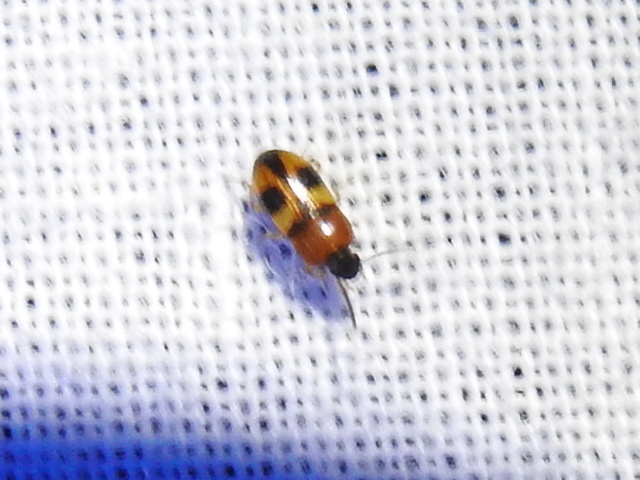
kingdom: Animalia
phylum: Arthropoda
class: Insecta
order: Coleoptera
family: Tenebrionidae
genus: Poecilocrypticus
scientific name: Poecilocrypticus formicophilus
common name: Darkling beetle
